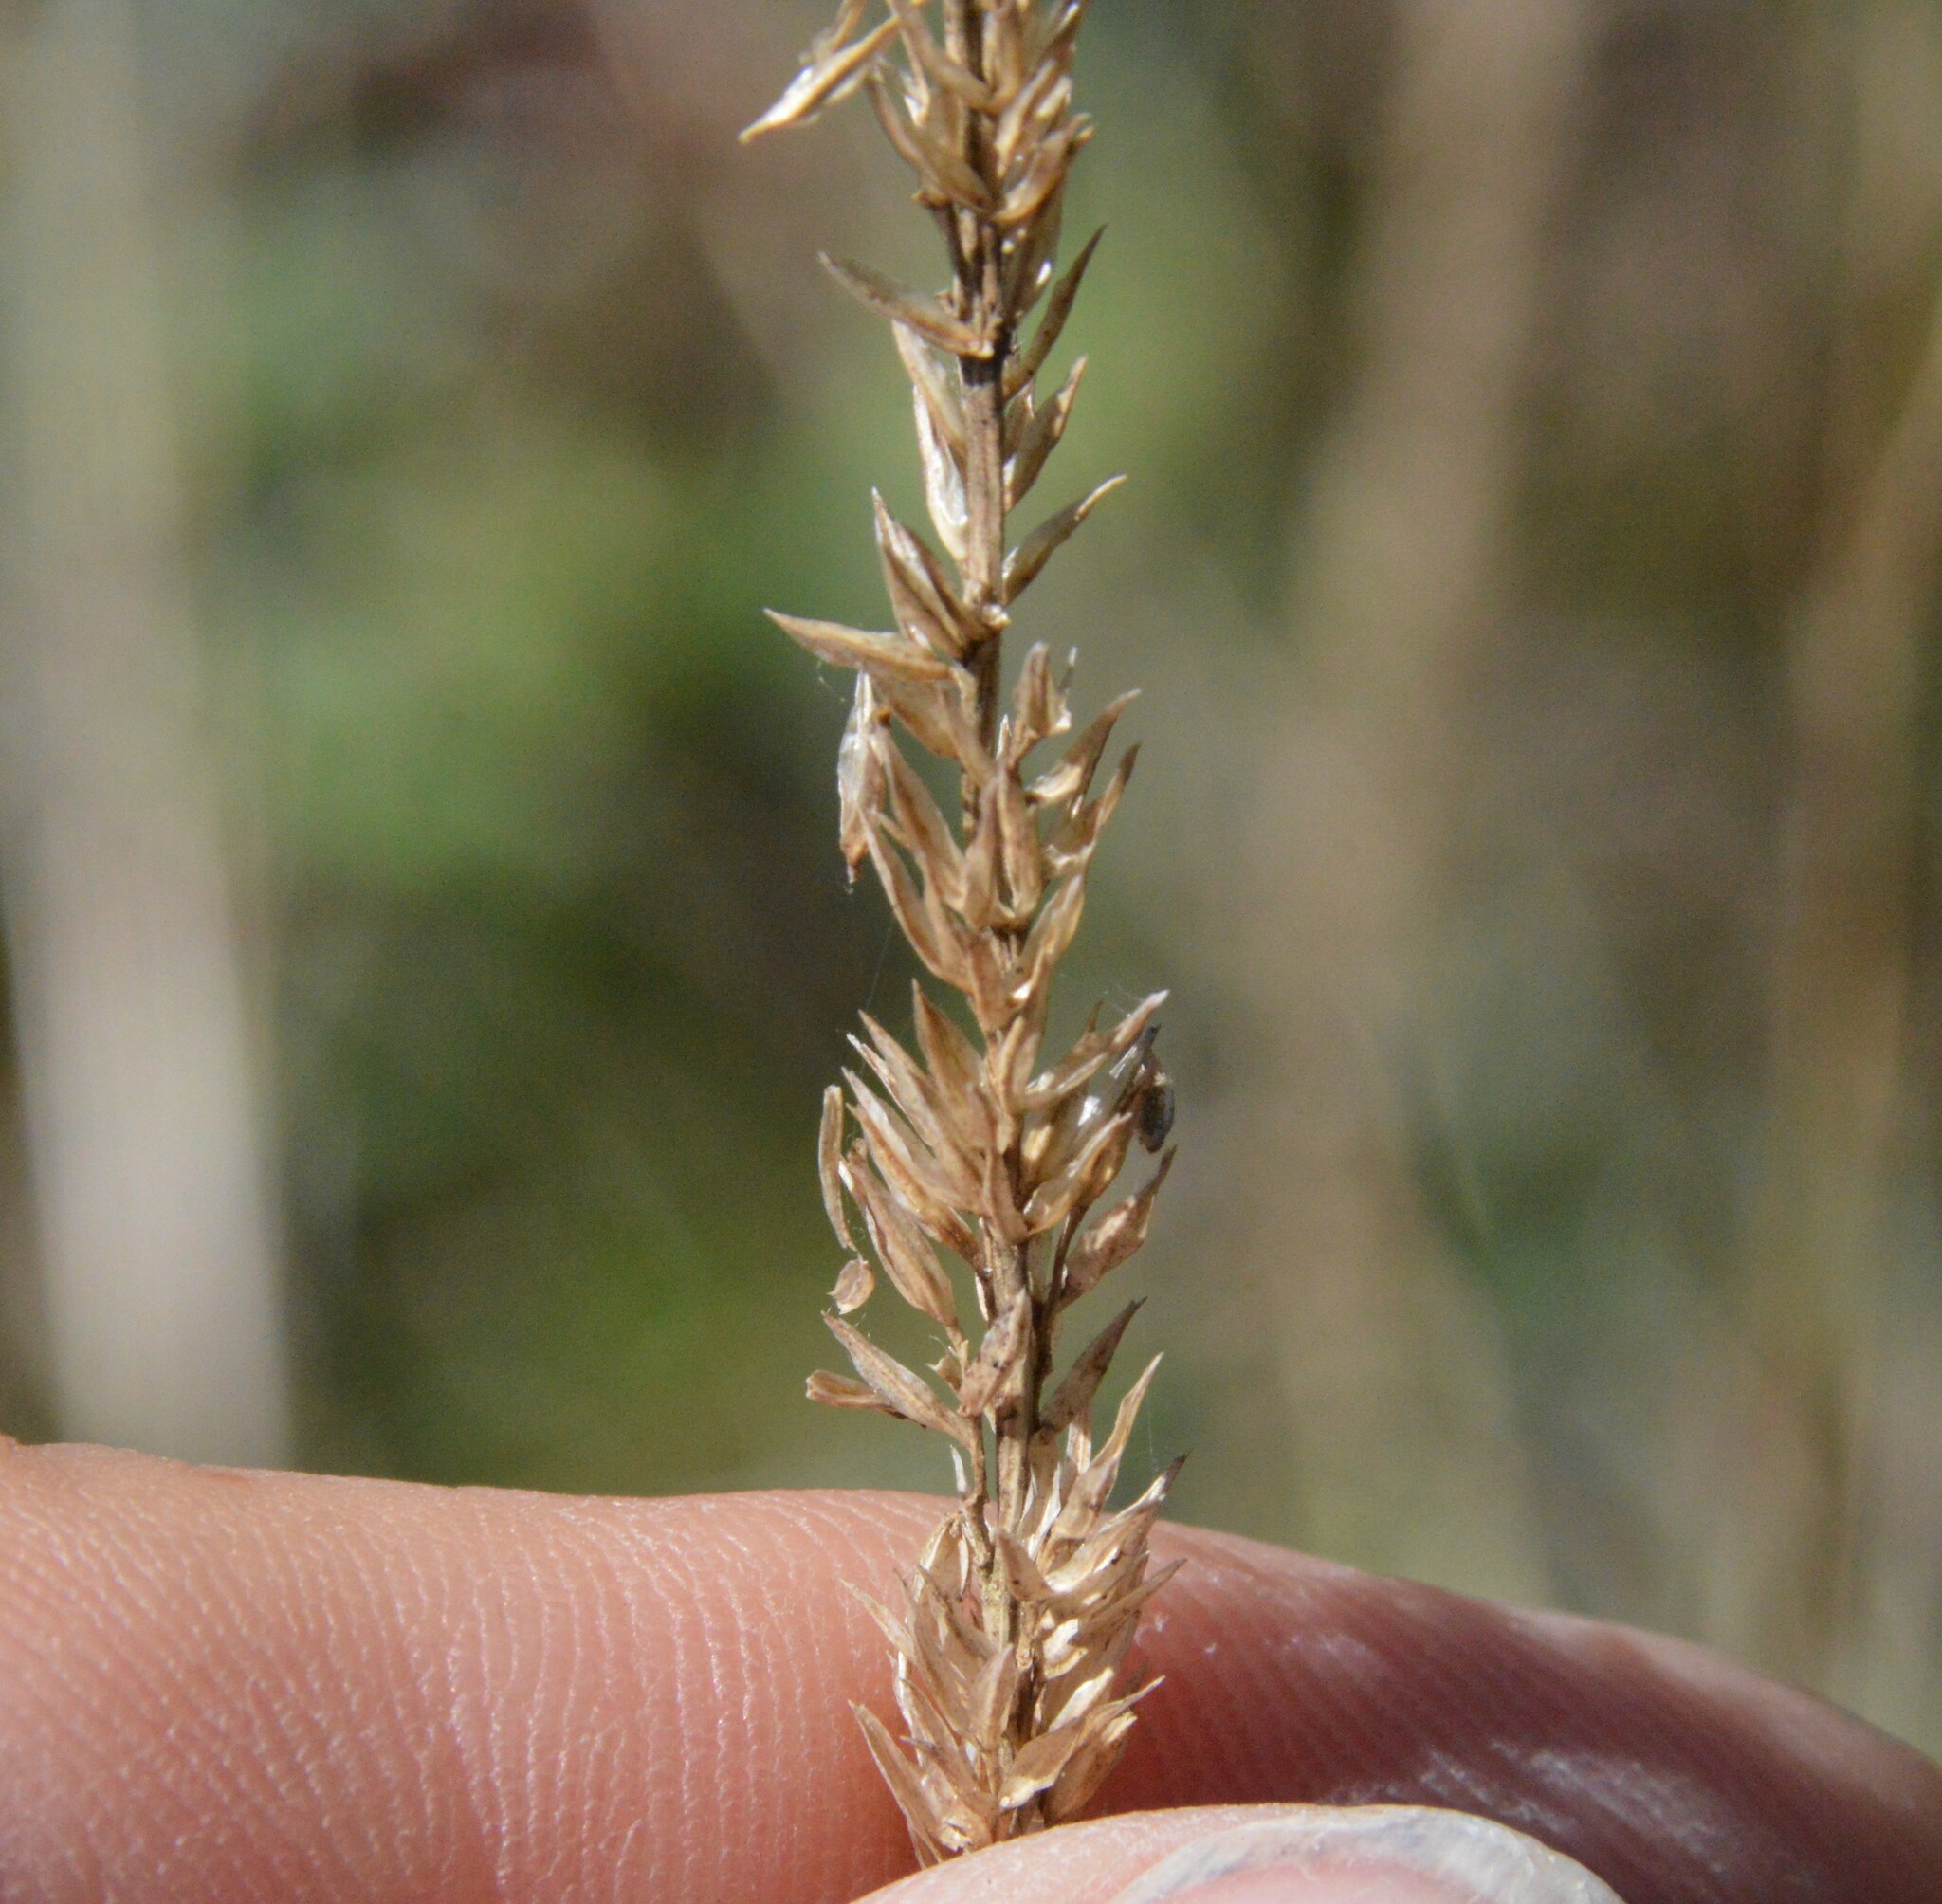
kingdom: Plantae
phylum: Tracheophyta
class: Liliopsida
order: Poales
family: Poaceae
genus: Tridens
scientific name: Tridens strictus
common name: Long-spike tridens
